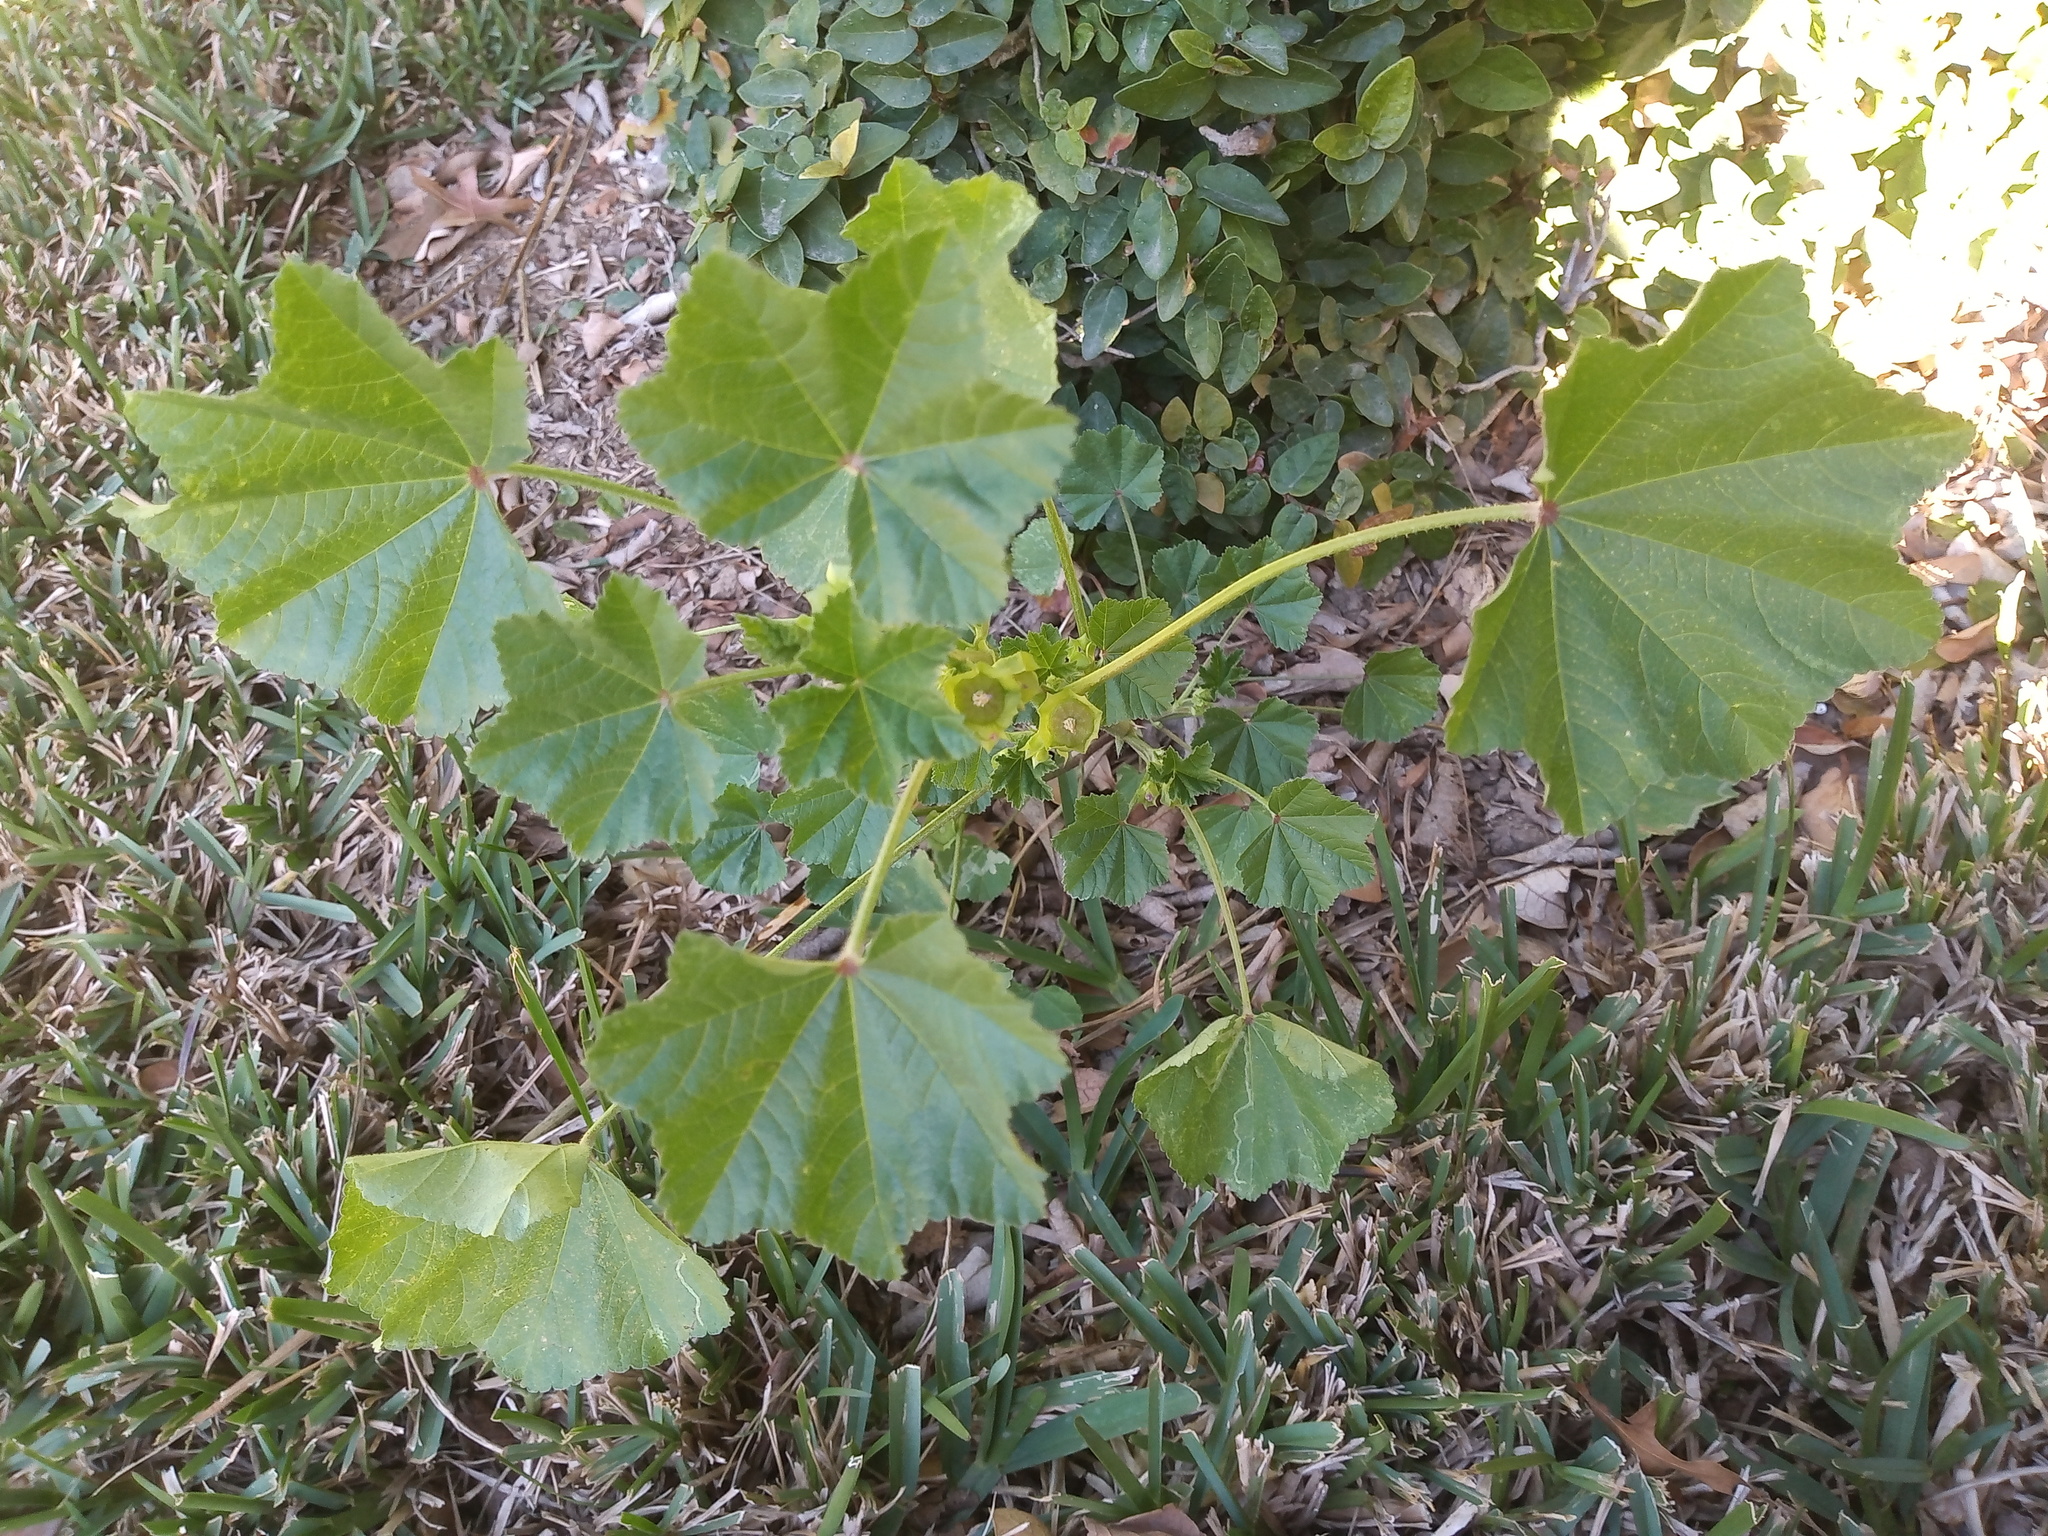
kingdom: Plantae
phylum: Tracheophyta
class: Magnoliopsida
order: Malvales
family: Malvaceae
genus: Malva
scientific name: Malva parviflora
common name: Least mallow
